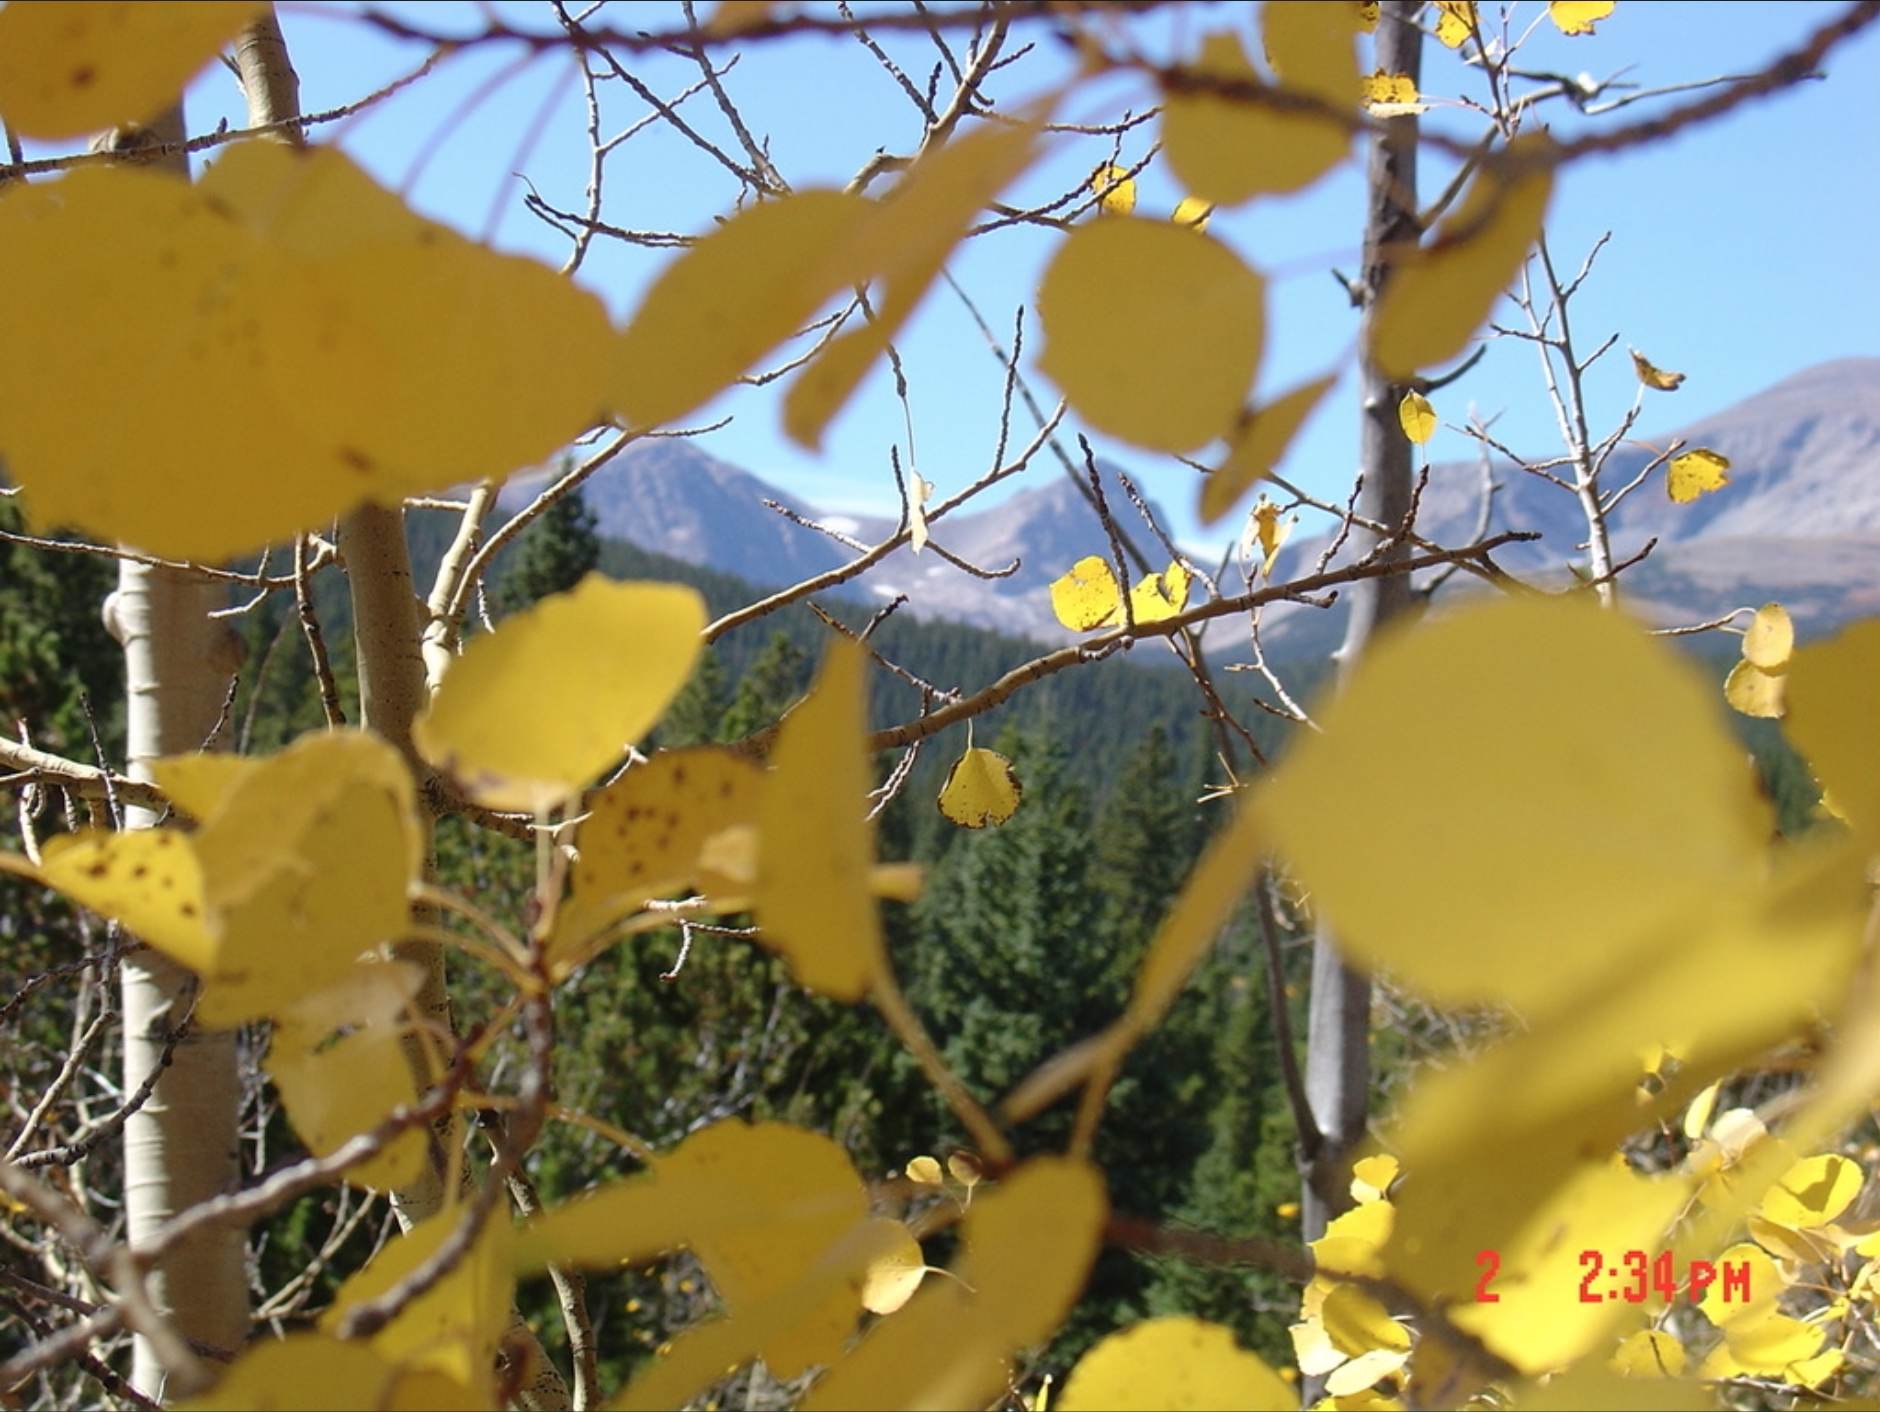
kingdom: Plantae
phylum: Tracheophyta
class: Magnoliopsida
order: Malpighiales
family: Salicaceae
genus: Populus
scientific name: Populus tremuloides
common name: Quaking aspen
